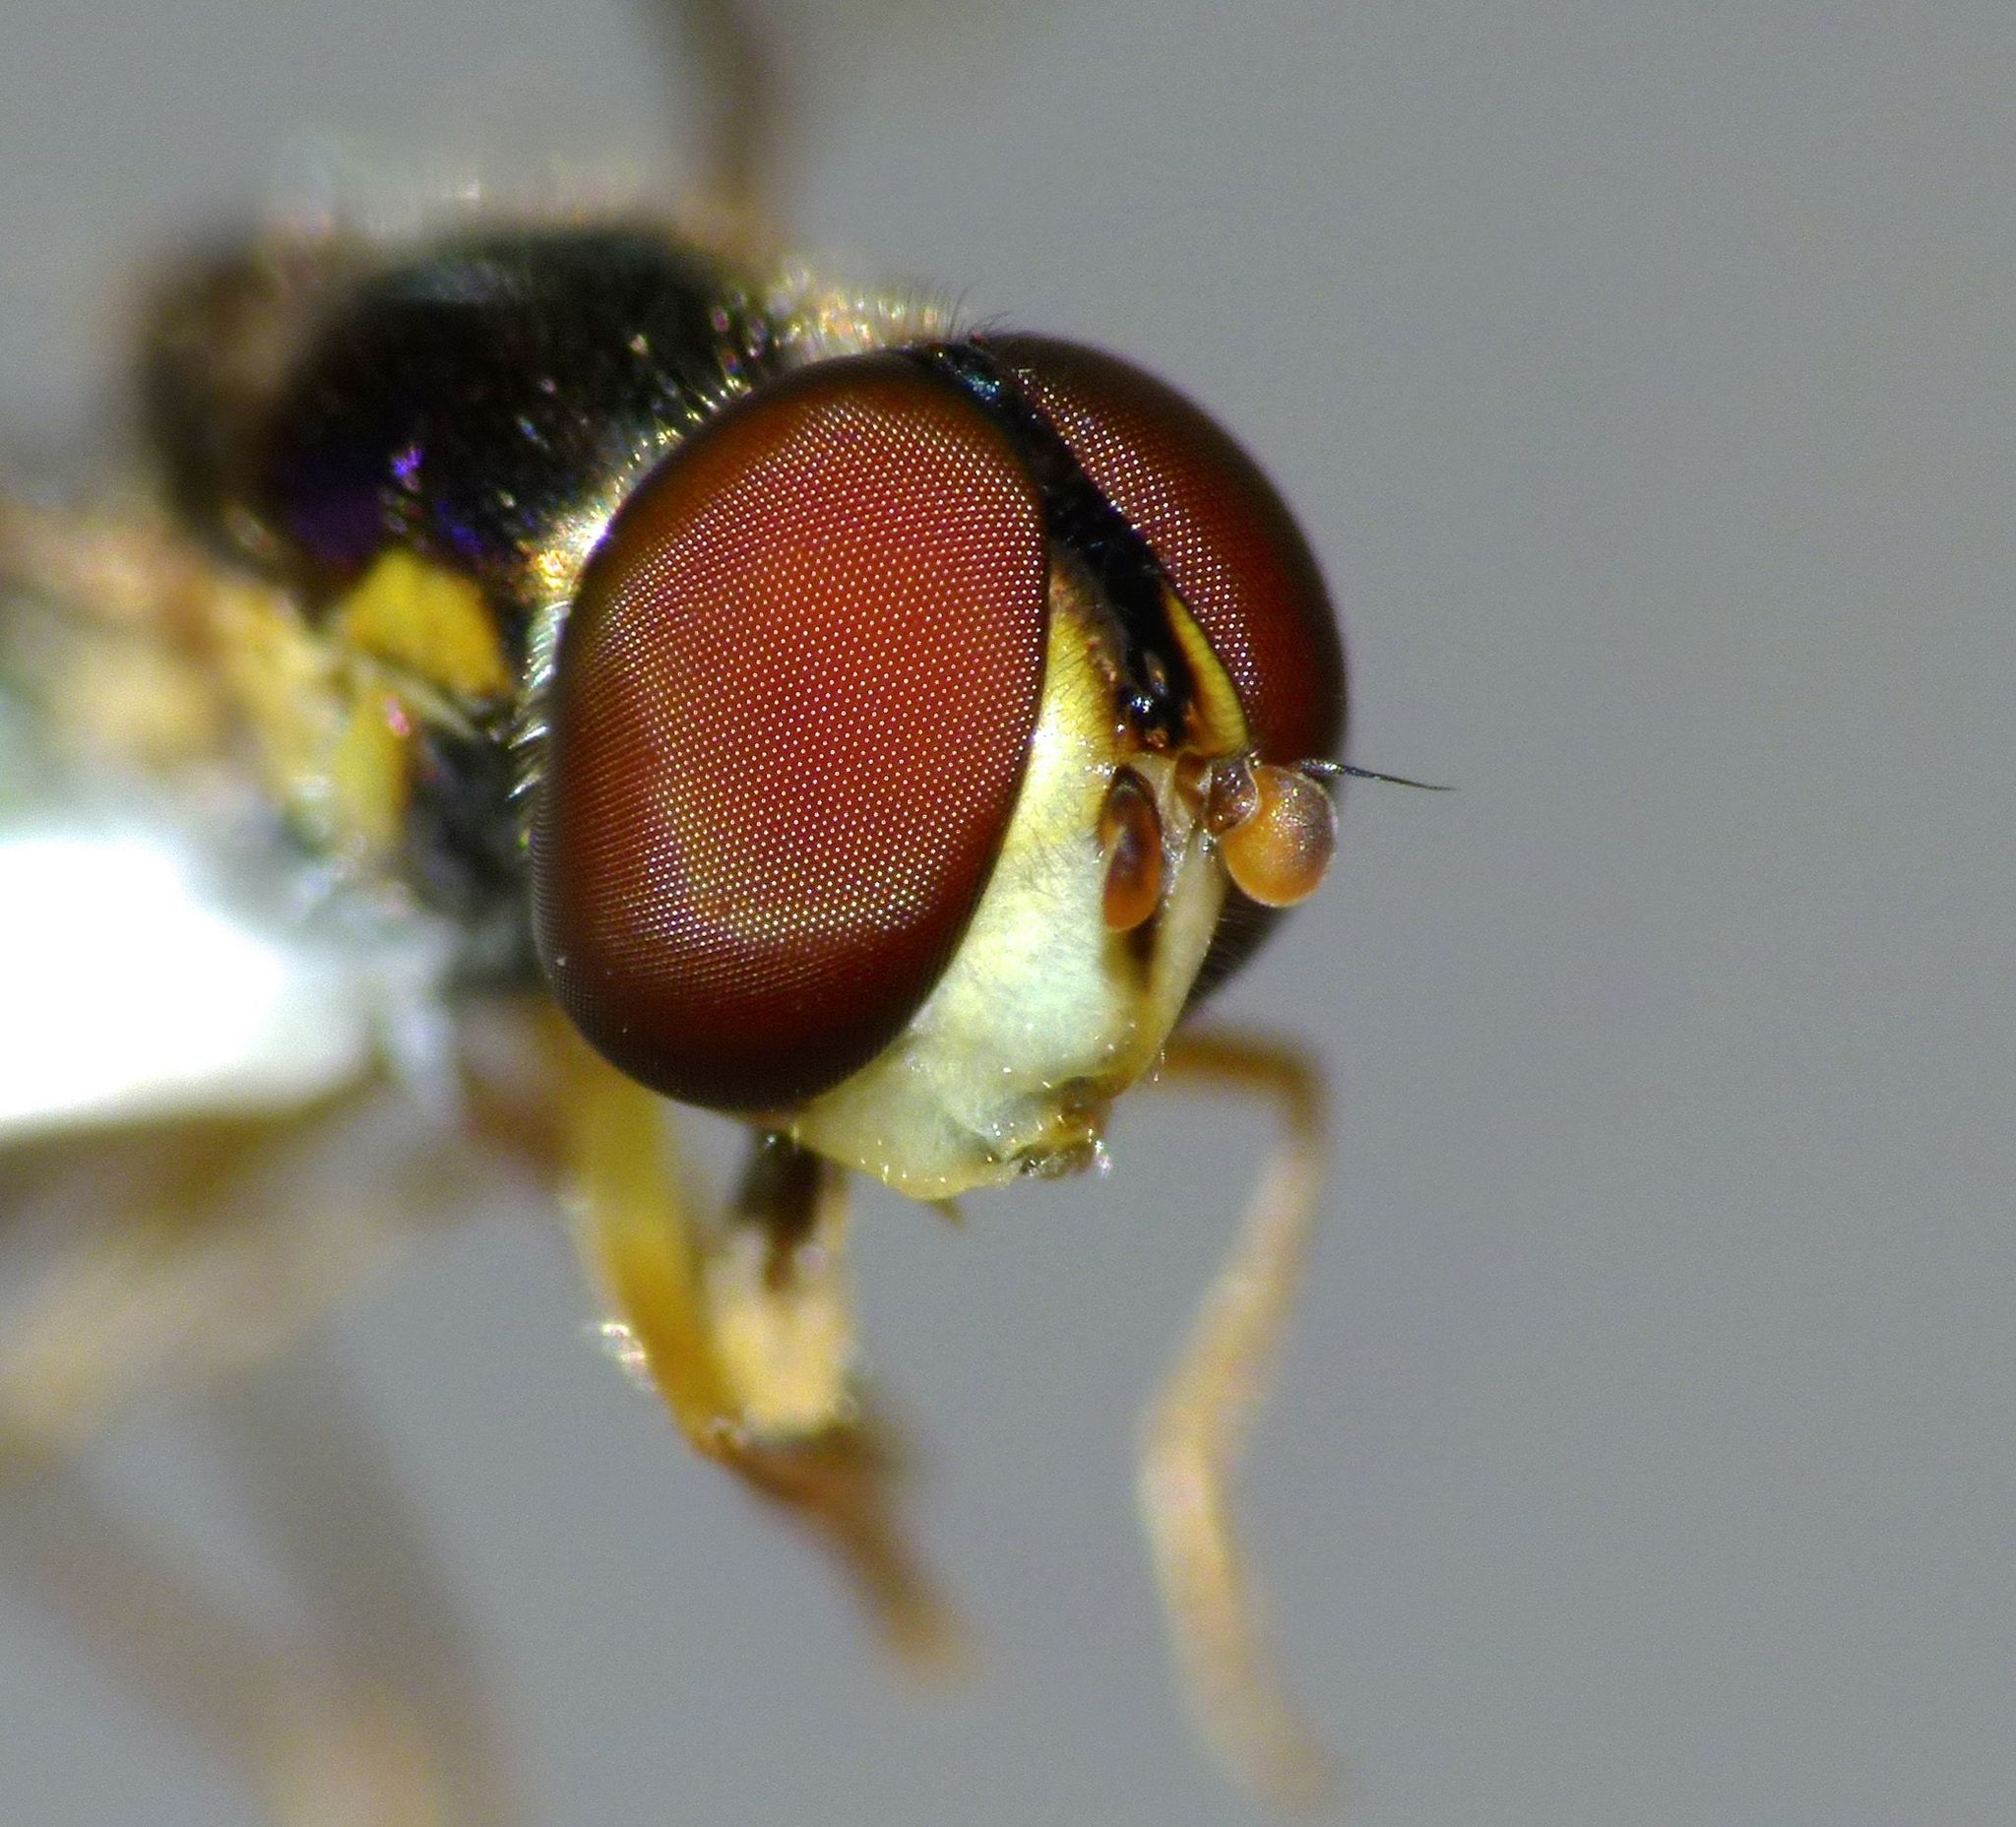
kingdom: Animalia
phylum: Arthropoda
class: Insecta
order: Diptera
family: Syrphidae
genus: Allograpta
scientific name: Allograpta hollowayae
